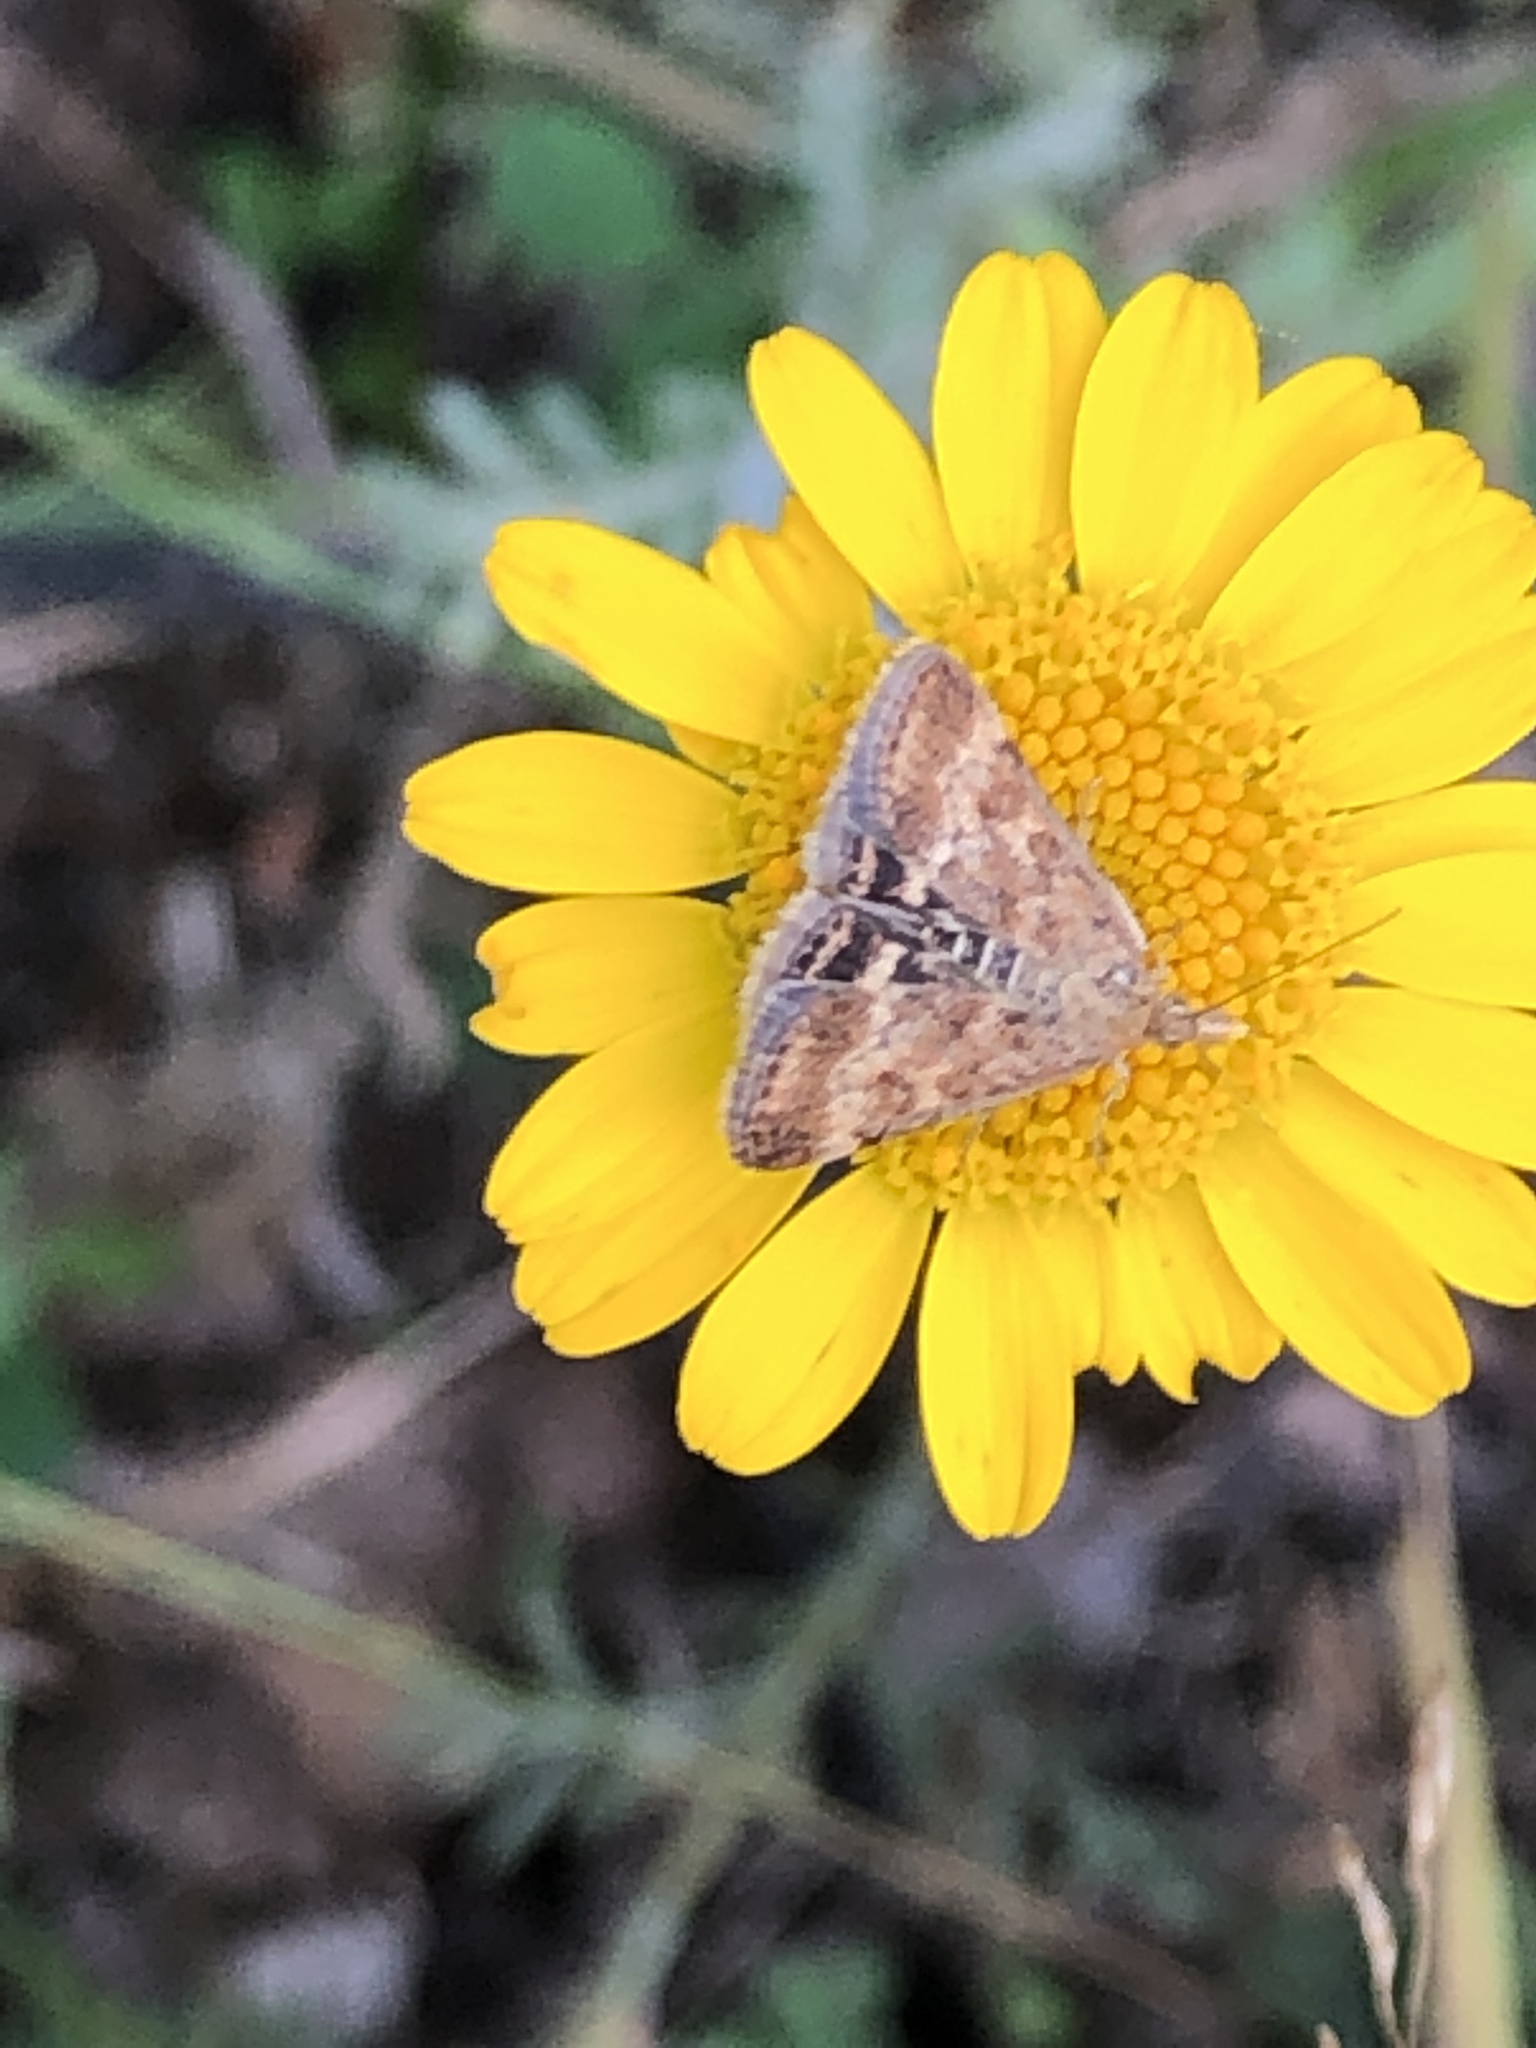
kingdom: Animalia
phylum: Arthropoda
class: Insecta
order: Lepidoptera
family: Crambidae
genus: Pyrausta
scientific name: Pyrausta despicata
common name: Straw-barred pearl
